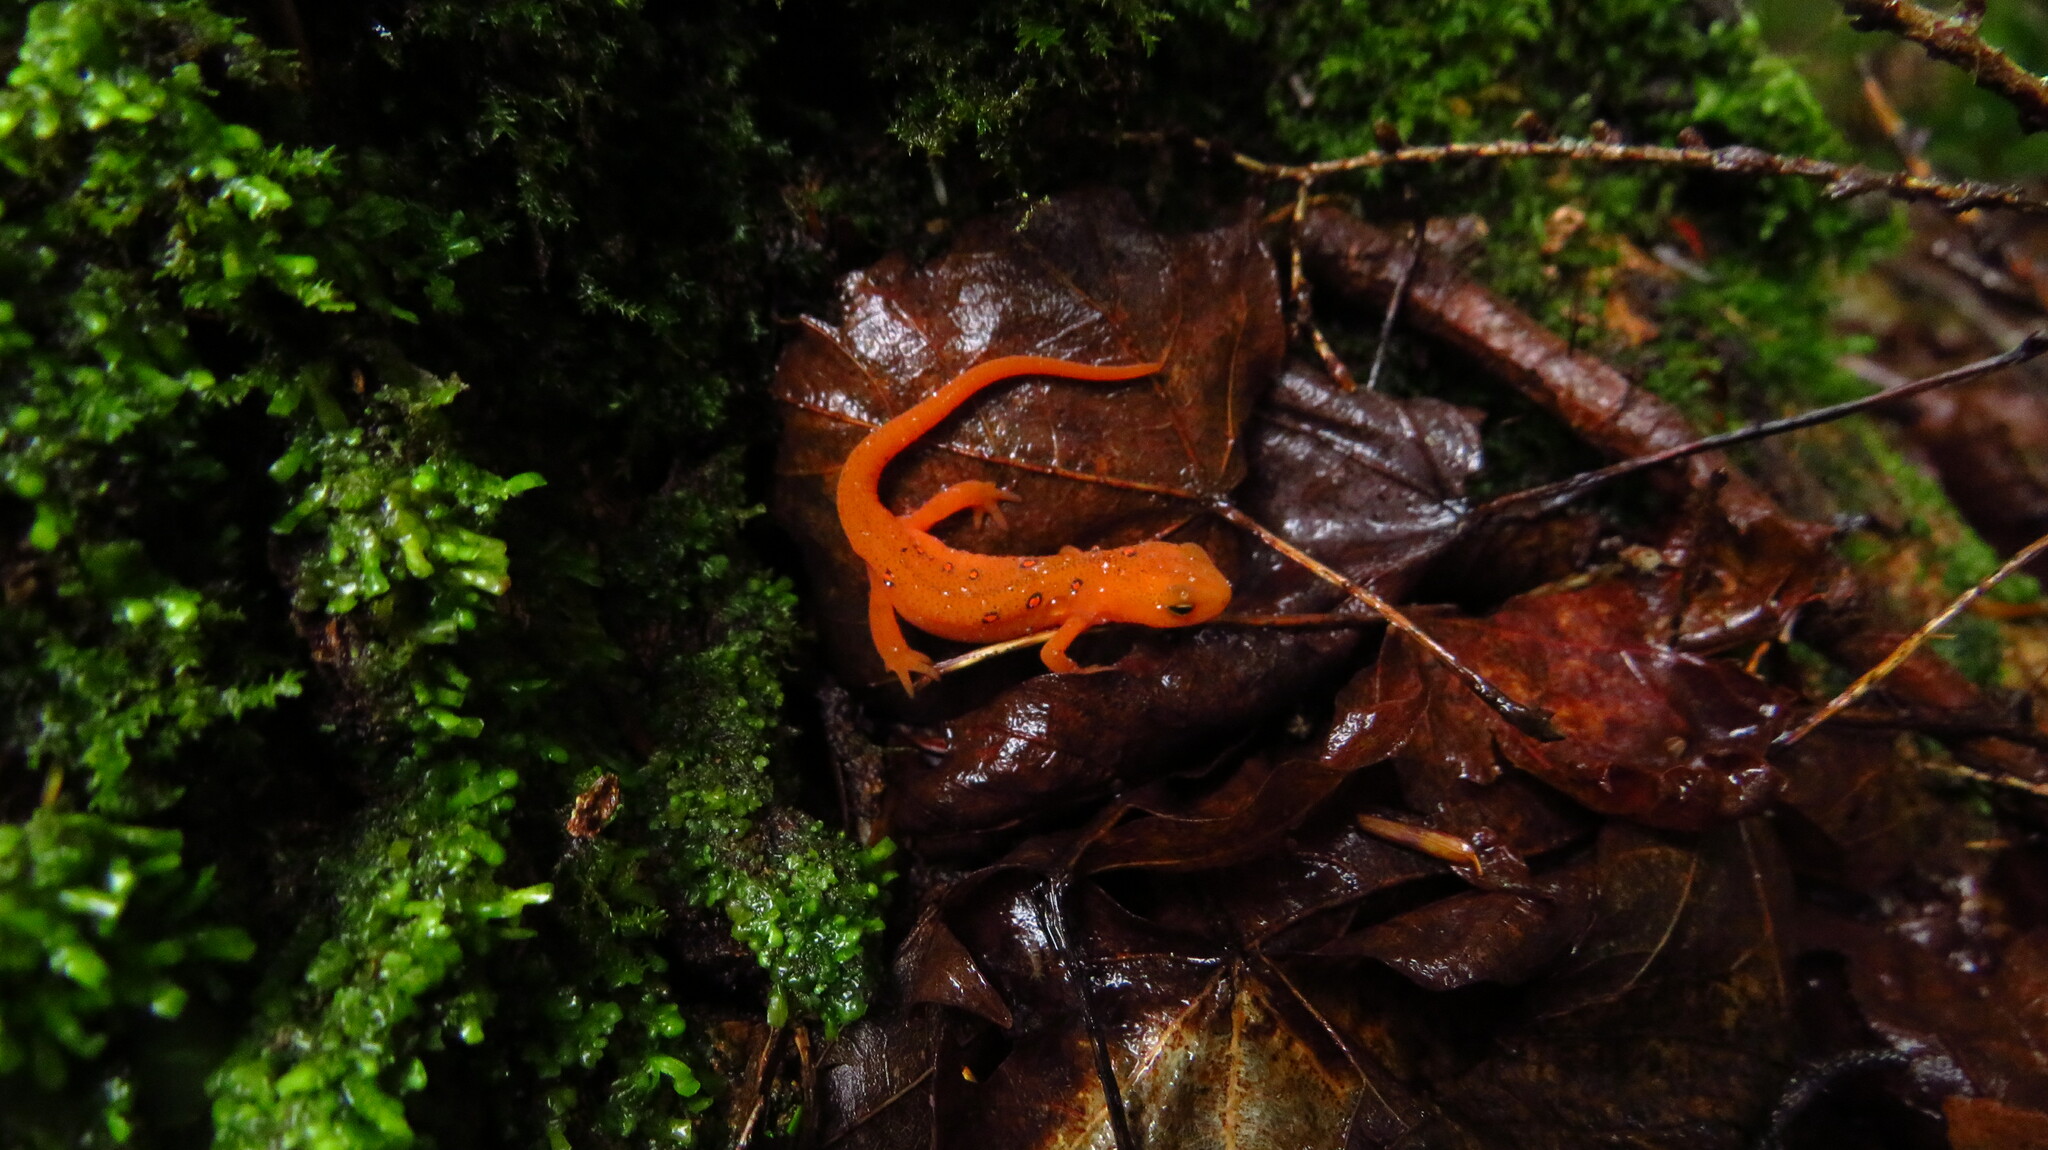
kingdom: Animalia
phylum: Chordata
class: Amphibia
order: Caudata
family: Salamandridae
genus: Notophthalmus
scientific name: Notophthalmus viridescens
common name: Eastern newt
